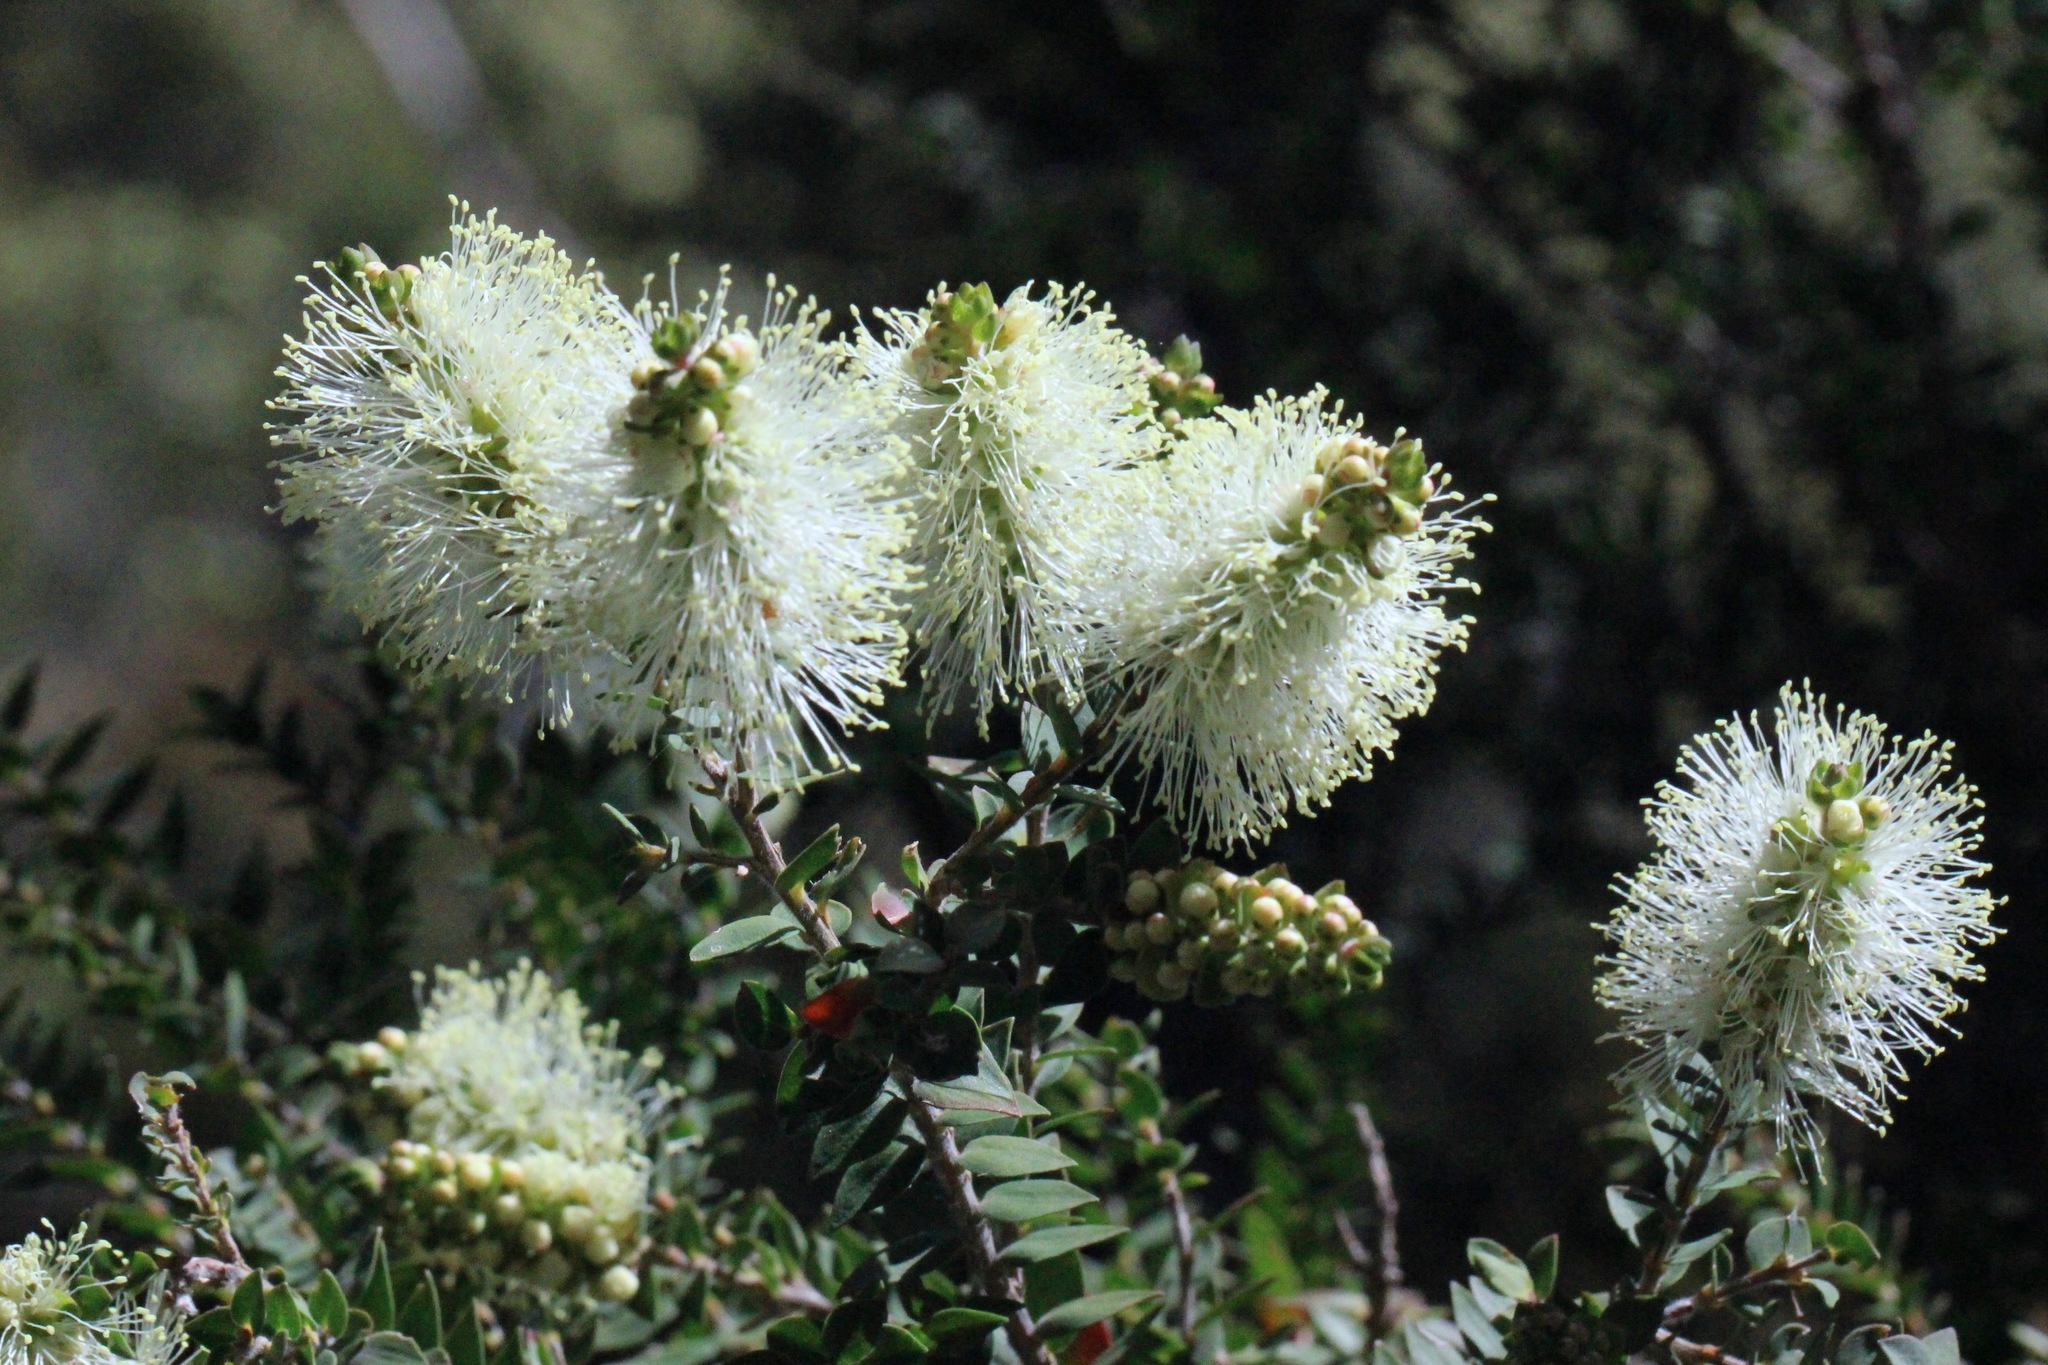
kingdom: Plantae
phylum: Tracheophyta
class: Magnoliopsida
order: Myrtales
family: Myrtaceae
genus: Melaleuca
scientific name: Melaleuca squarrosa
